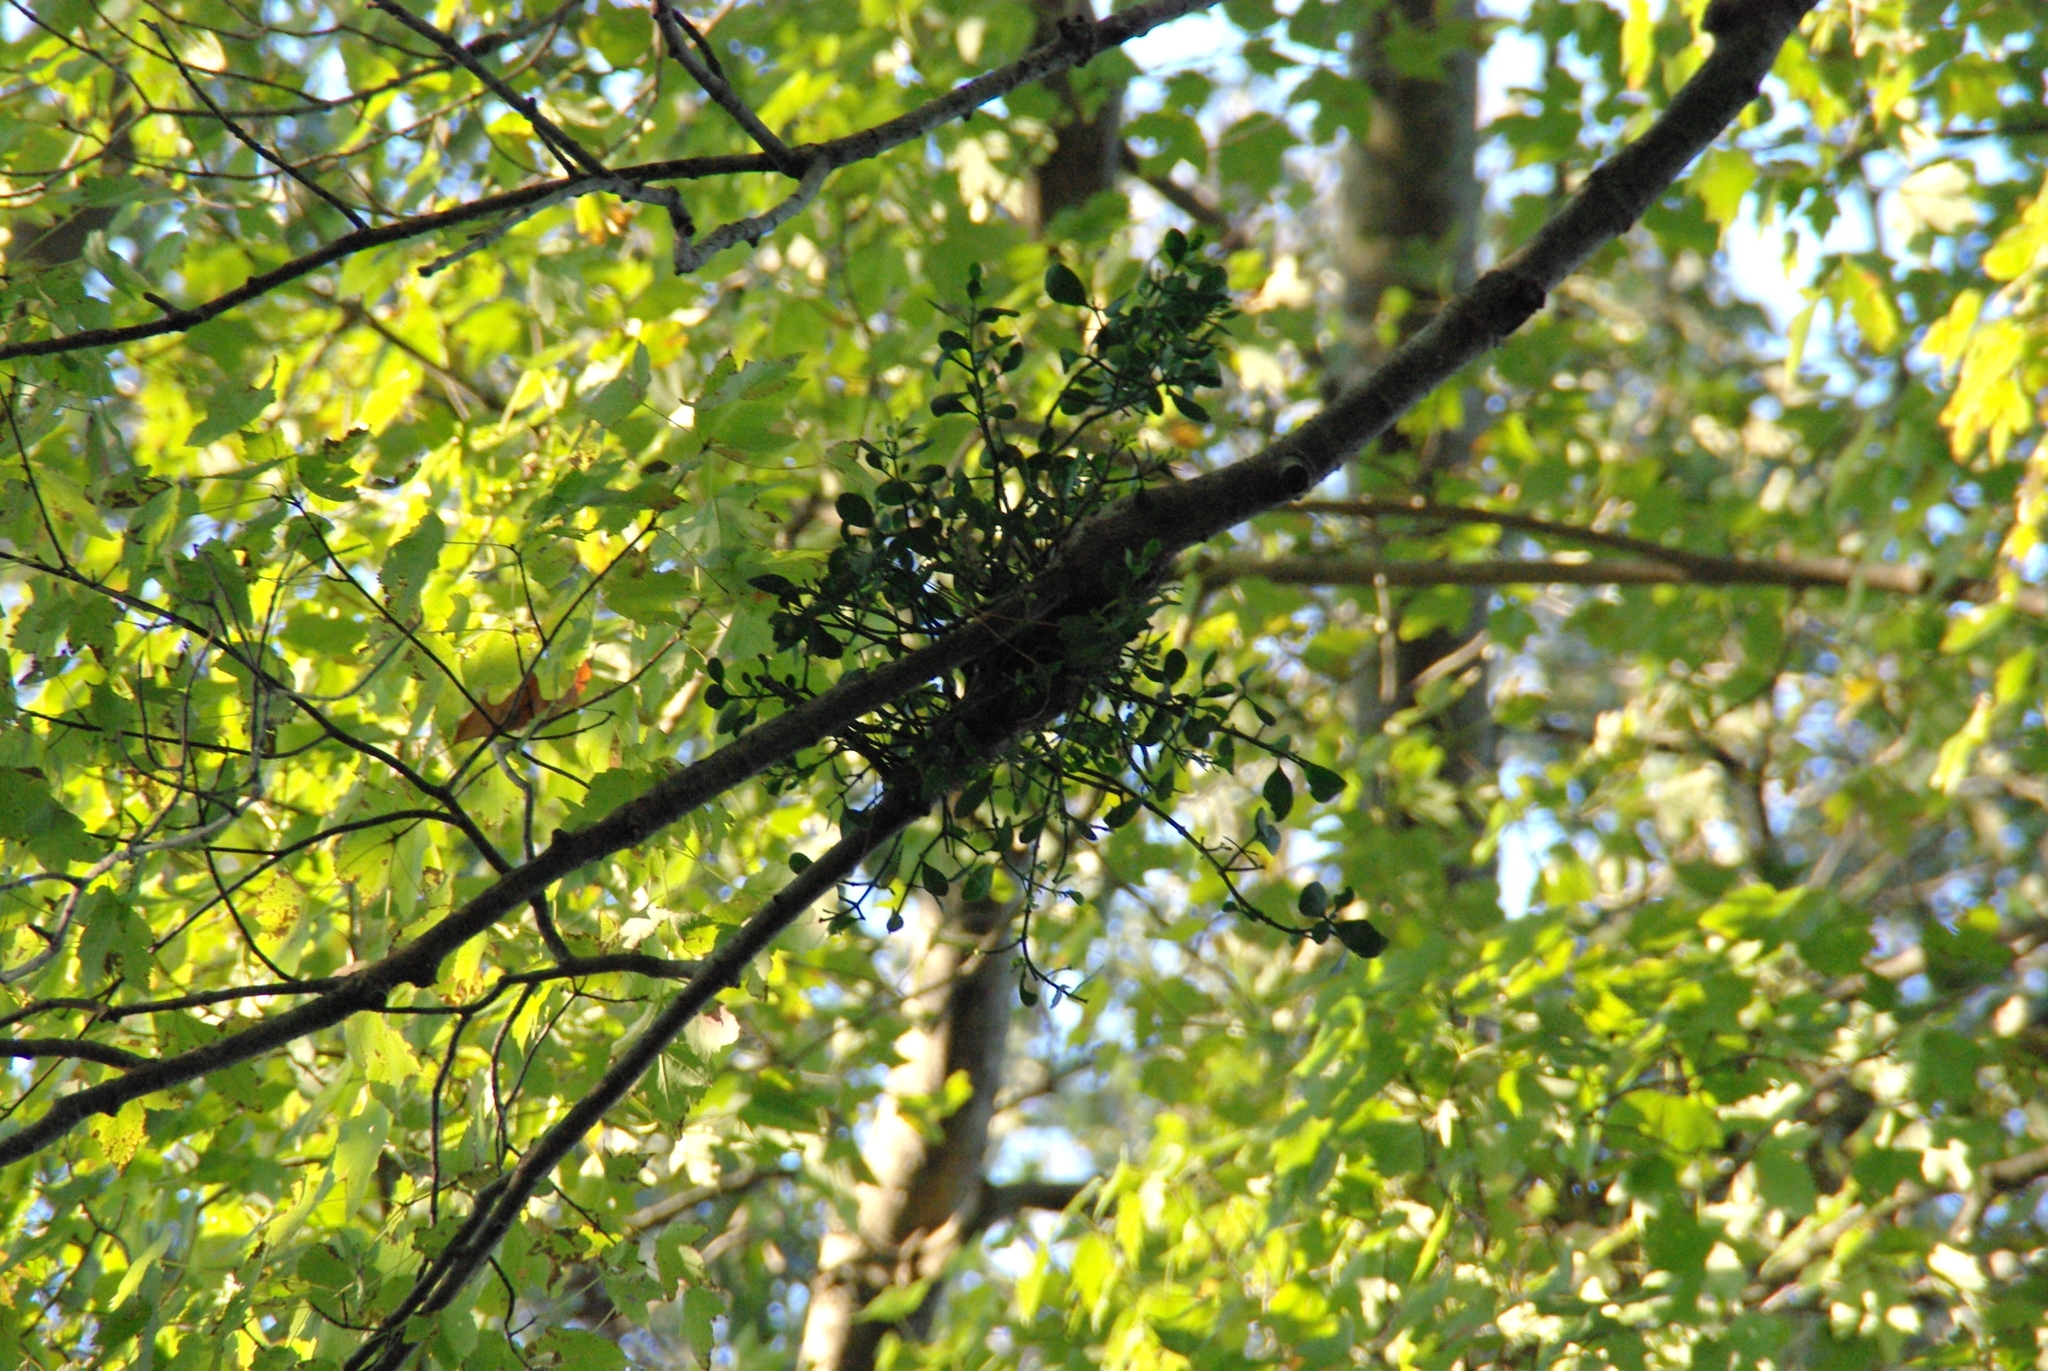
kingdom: Plantae
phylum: Tracheophyta
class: Magnoliopsida
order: Santalales
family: Viscaceae
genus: Phoradendron
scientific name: Phoradendron leucarpum
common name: Pacific mistletoe
